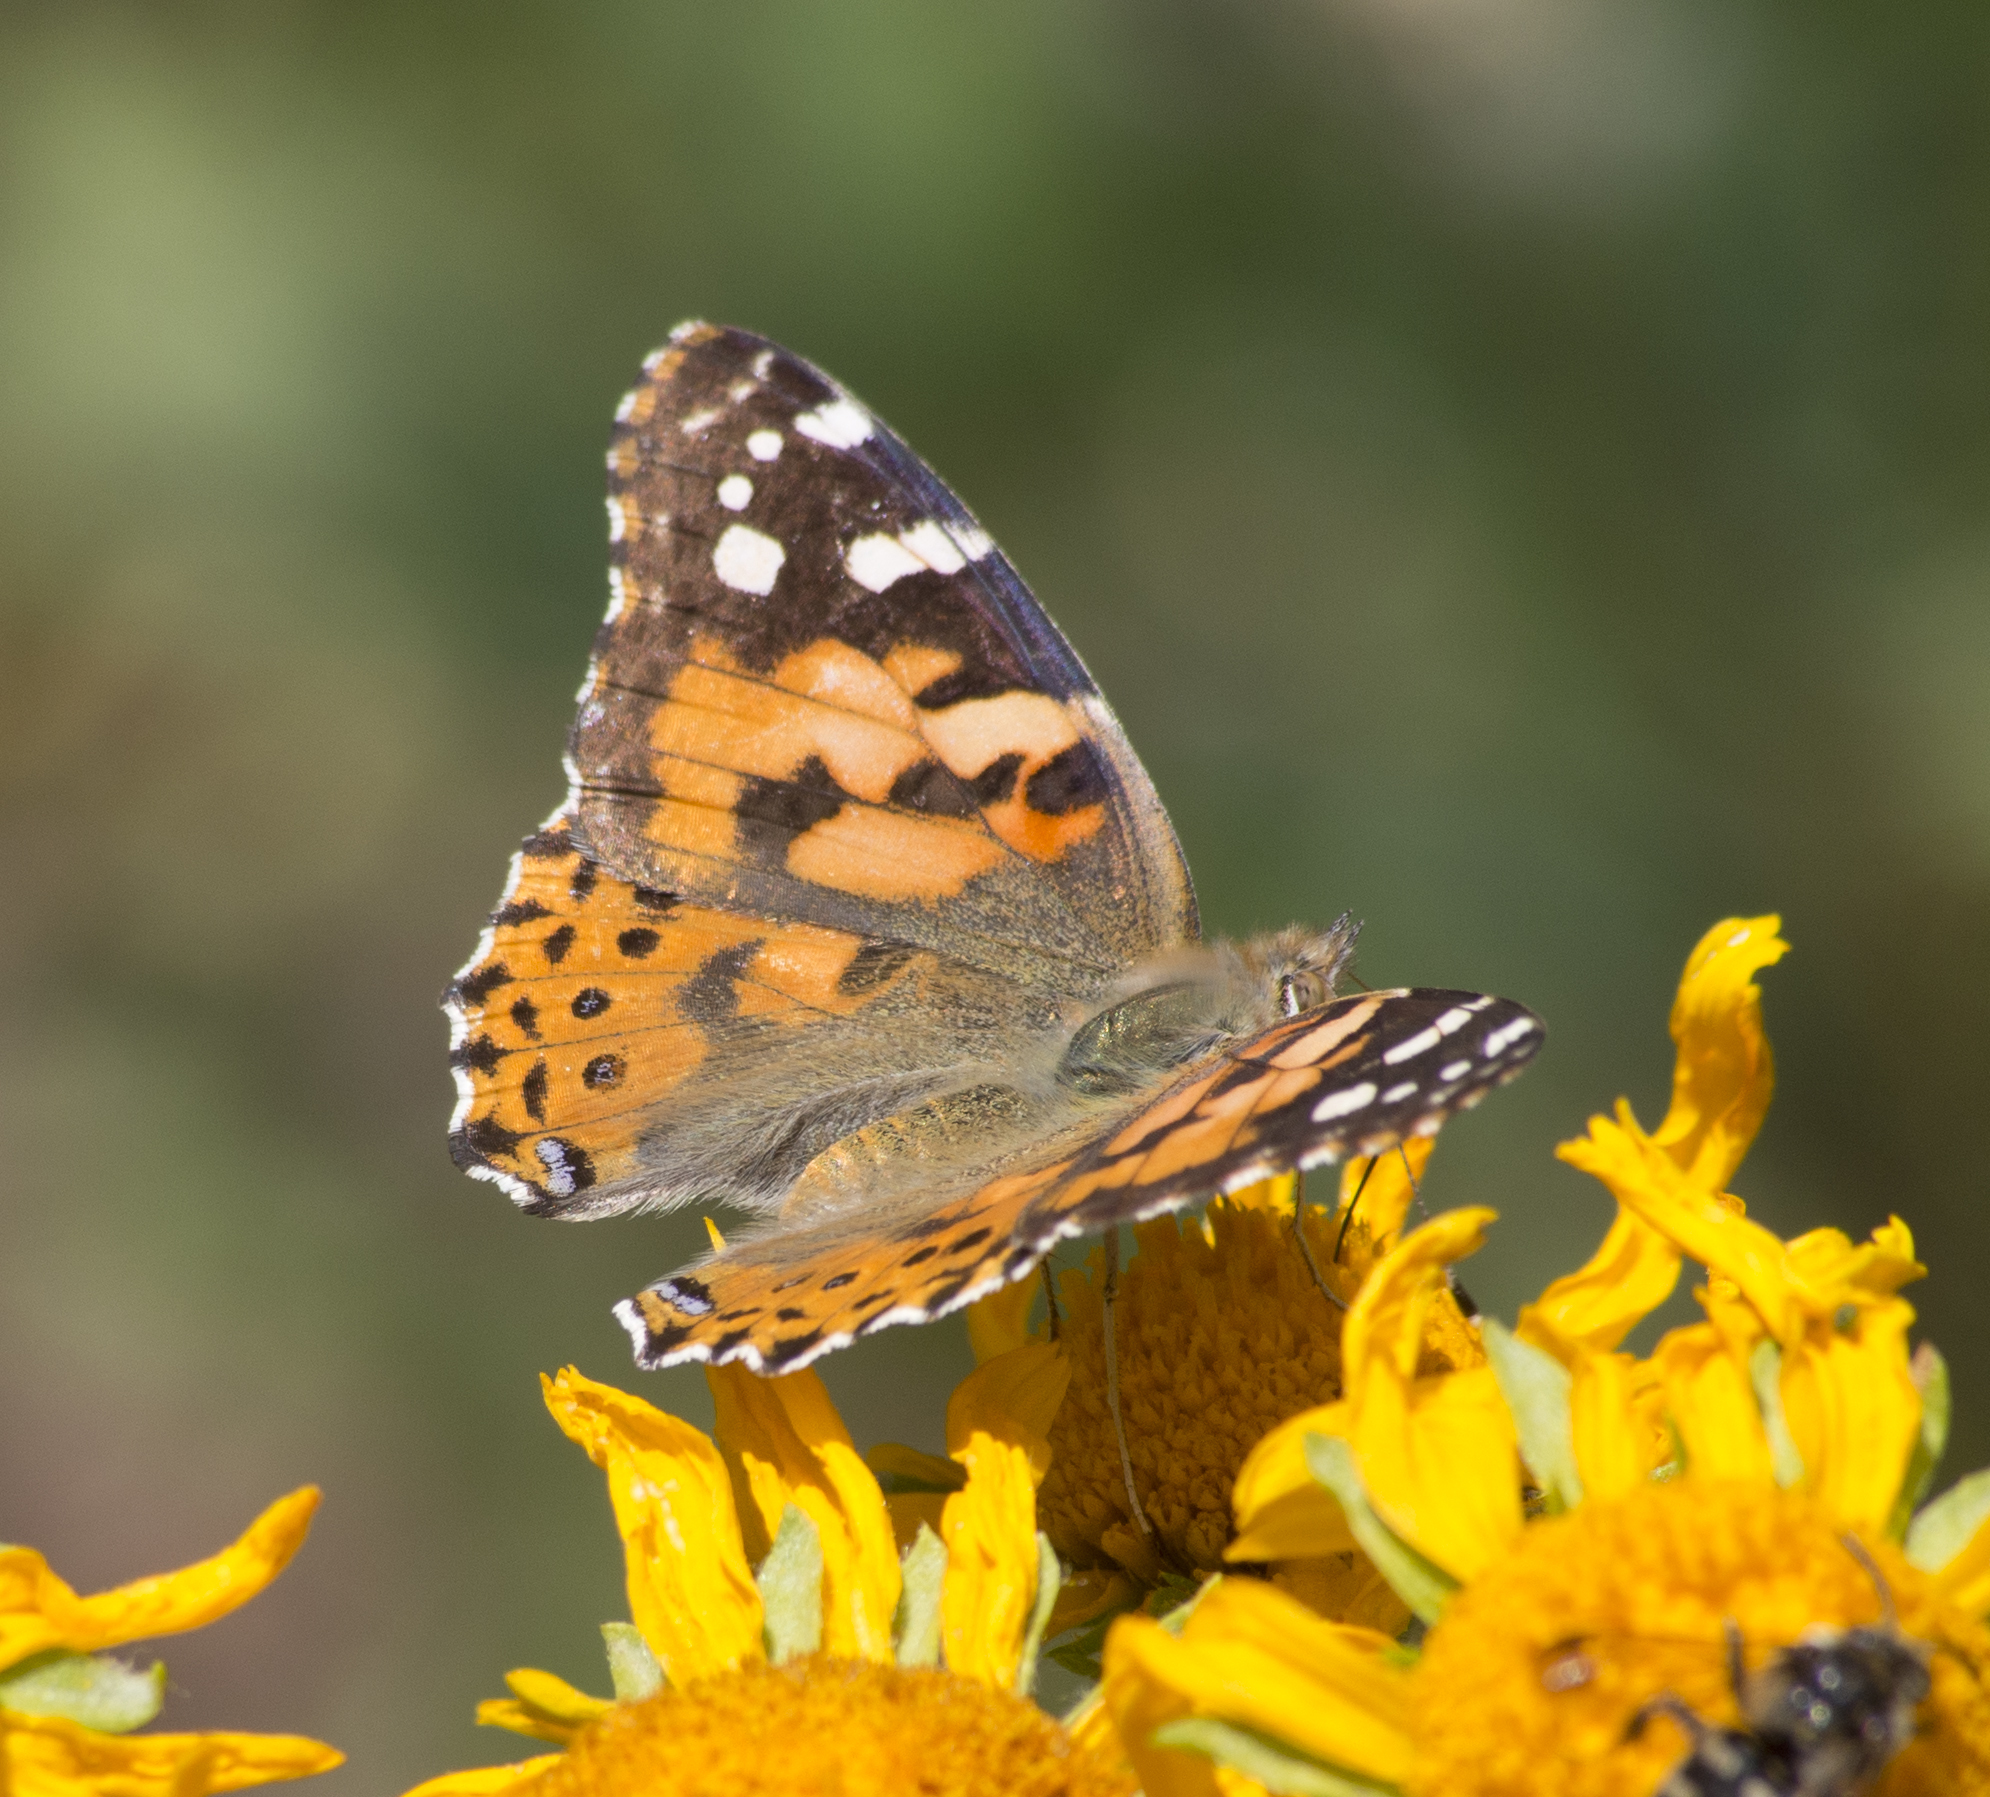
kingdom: Animalia
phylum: Arthropoda
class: Insecta
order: Lepidoptera
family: Nymphalidae
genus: Vanessa
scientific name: Vanessa cardui
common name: Painted lady
